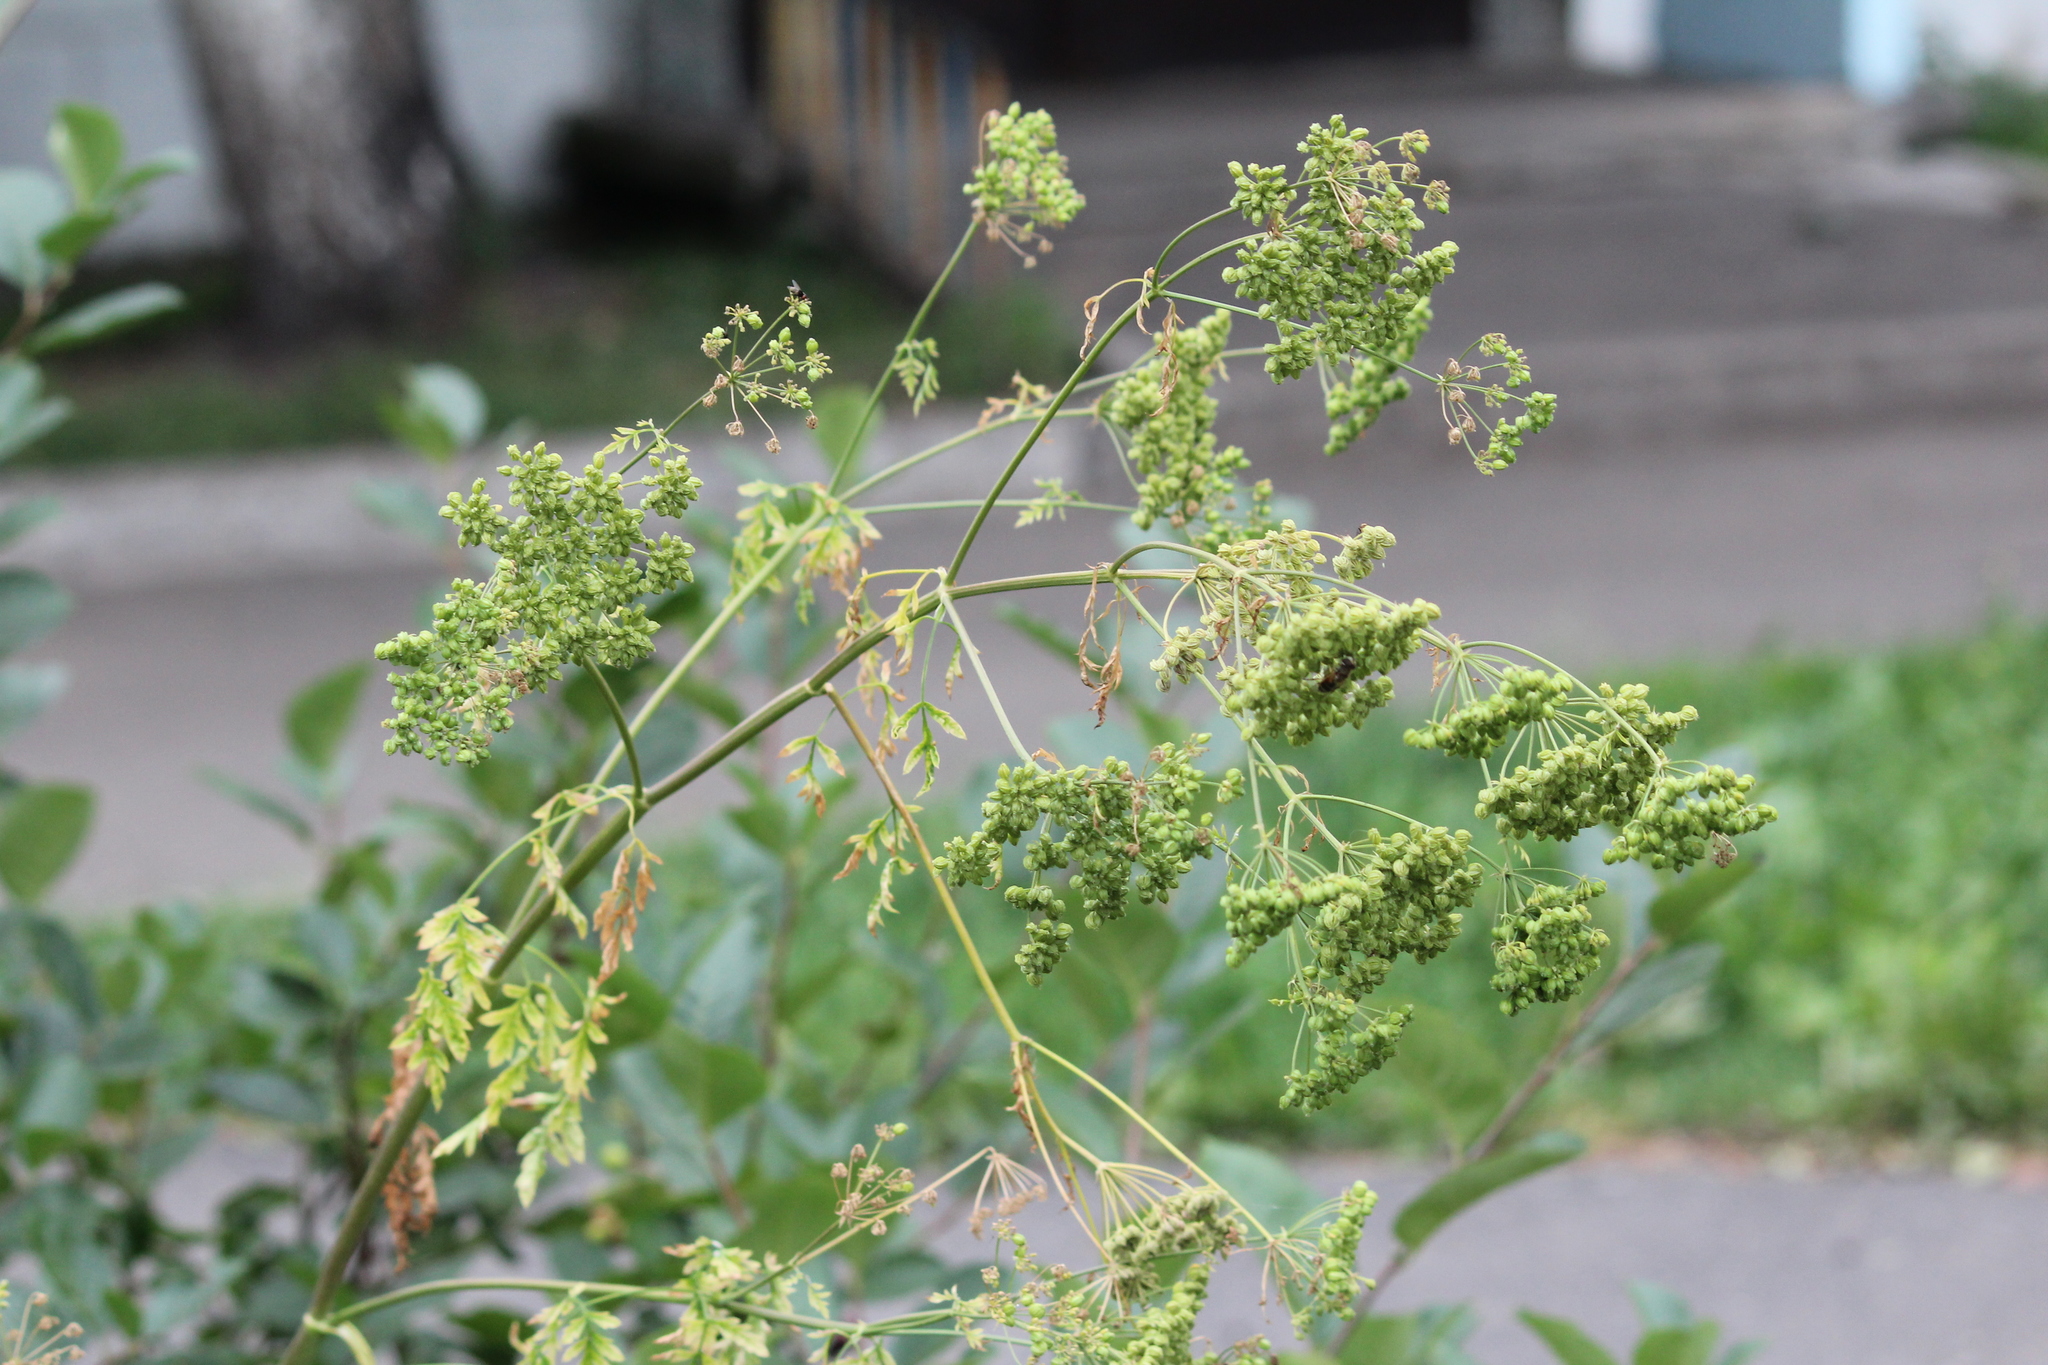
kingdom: Plantae
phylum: Tracheophyta
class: Magnoliopsida
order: Apiales
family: Apiaceae
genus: Conium
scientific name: Conium maculatum
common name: Hemlock
